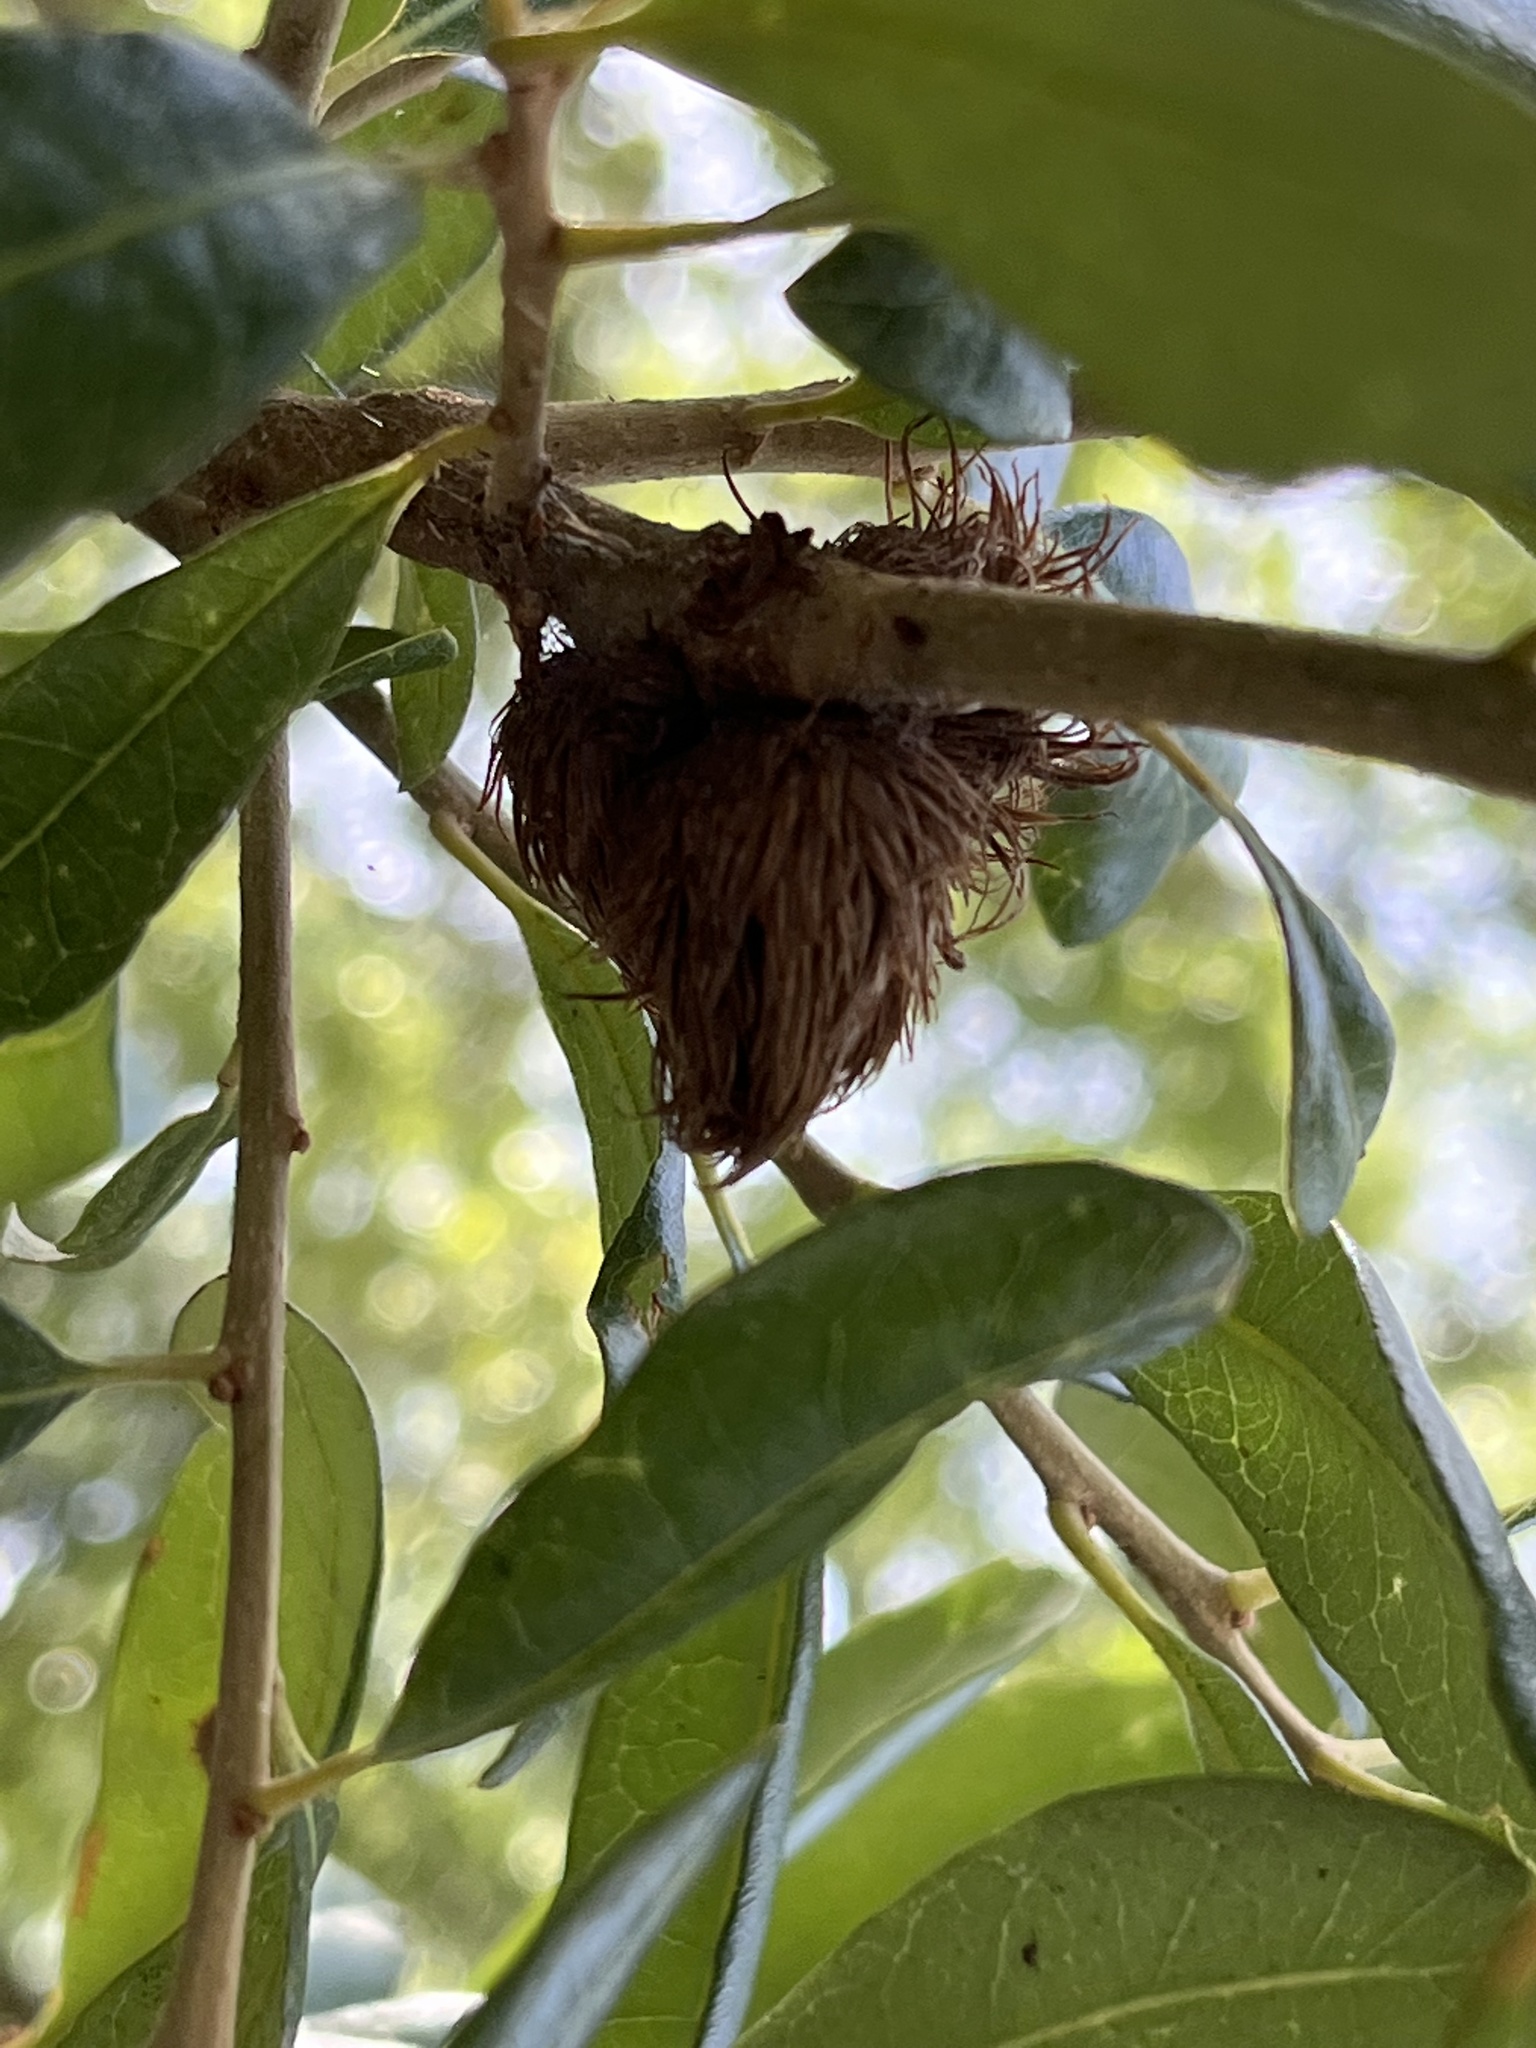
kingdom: Animalia
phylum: Arthropoda
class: Insecta
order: Hymenoptera
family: Cynipidae
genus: Andricus
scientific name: Andricus quercusfoliatus
